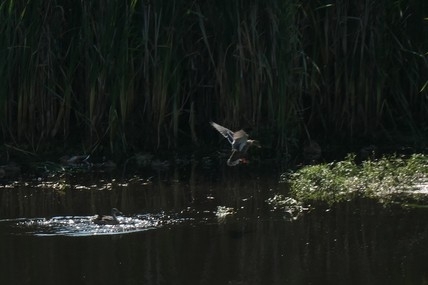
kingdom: Animalia
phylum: Chordata
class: Aves
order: Anseriformes
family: Anatidae
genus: Anas
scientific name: Anas platyrhynchos
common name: Mallard
